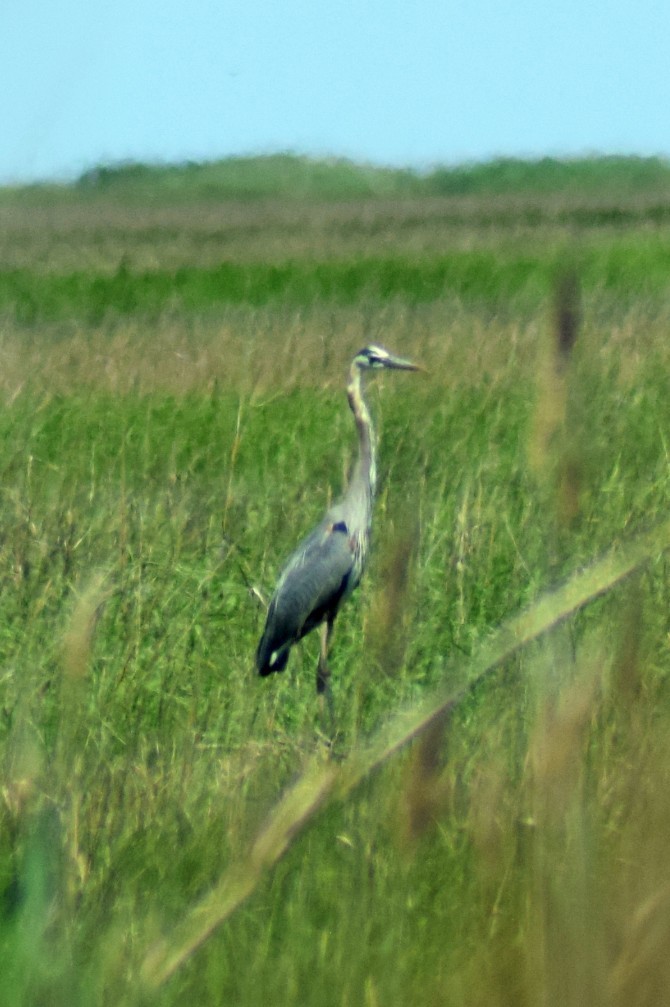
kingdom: Animalia
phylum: Chordata
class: Aves
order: Pelecaniformes
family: Ardeidae
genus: Ardea
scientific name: Ardea herodias
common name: Great blue heron
